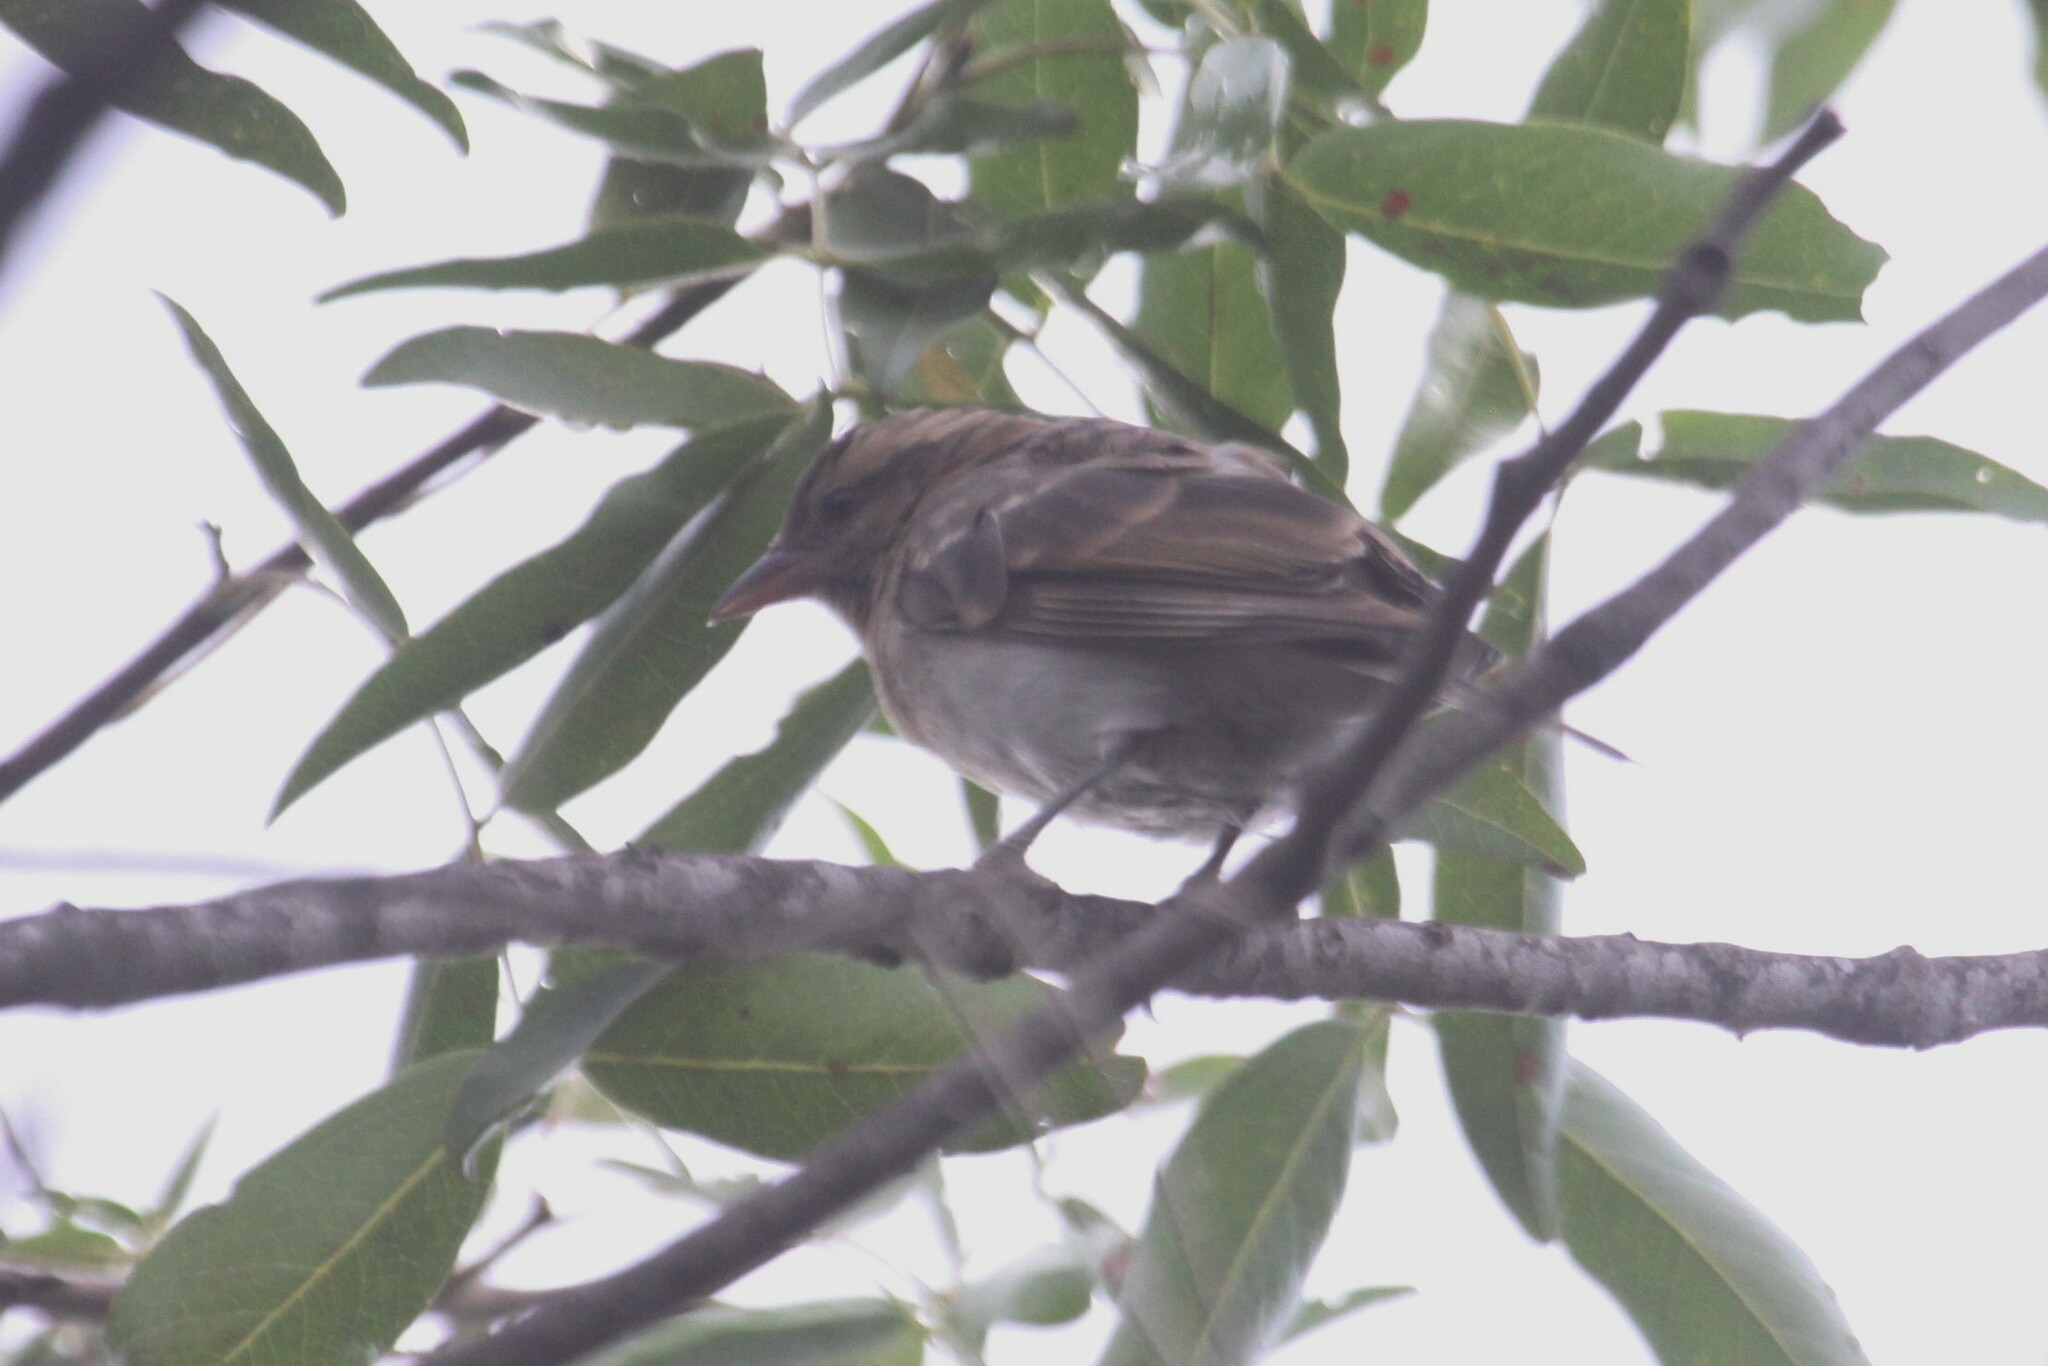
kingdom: Animalia
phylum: Chordata
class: Aves
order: Passeriformes
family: Passeridae
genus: Gymnoris
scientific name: Gymnoris superciliaris
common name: Yellow-throated petronia
